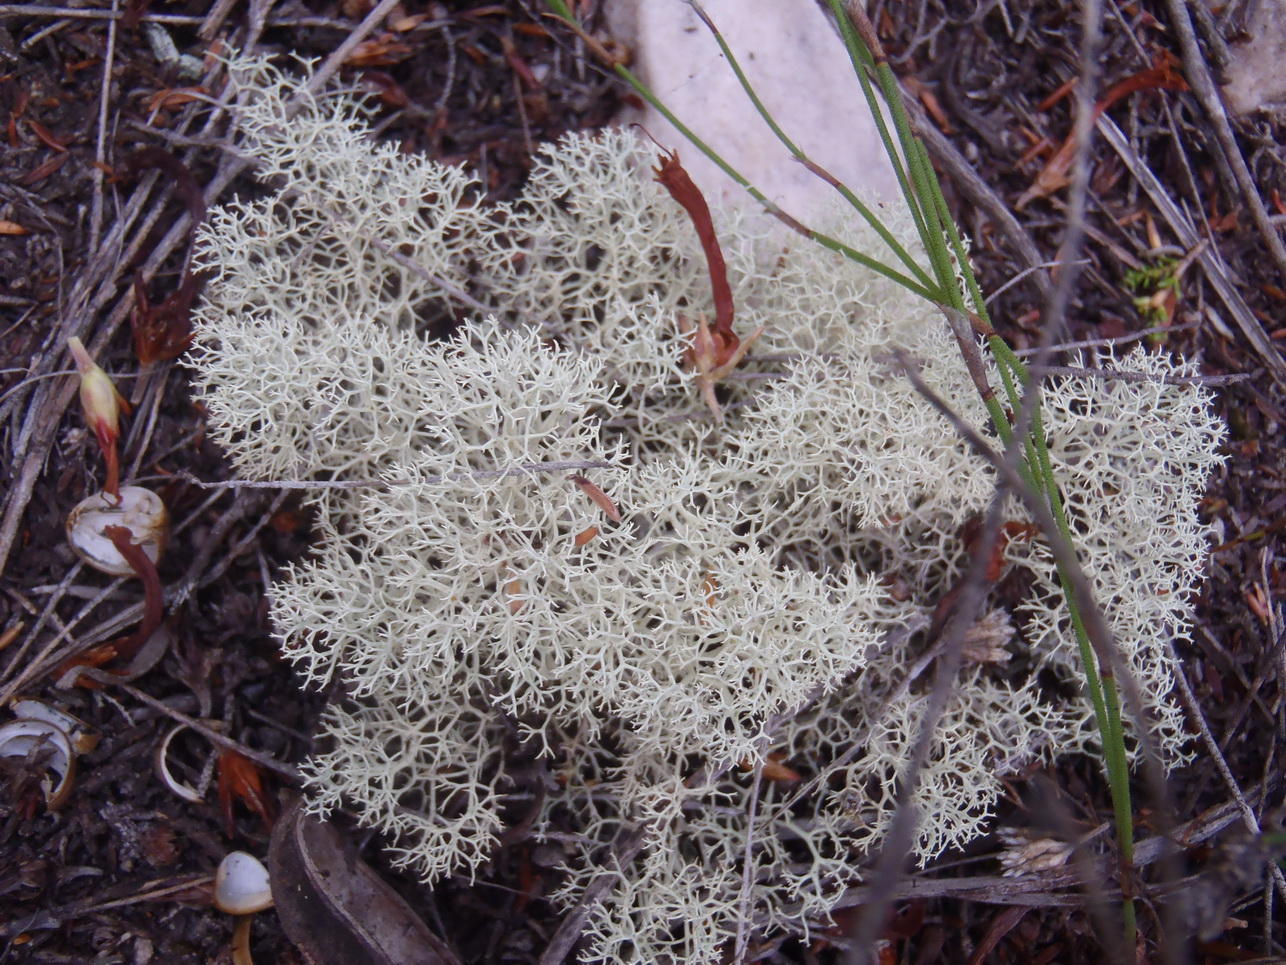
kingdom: Fungi
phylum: Ascomycota
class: Lecanoromycetes
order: Lecanorales
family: Cladoniaceae
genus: Cladonia
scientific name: Cladonia confusa
